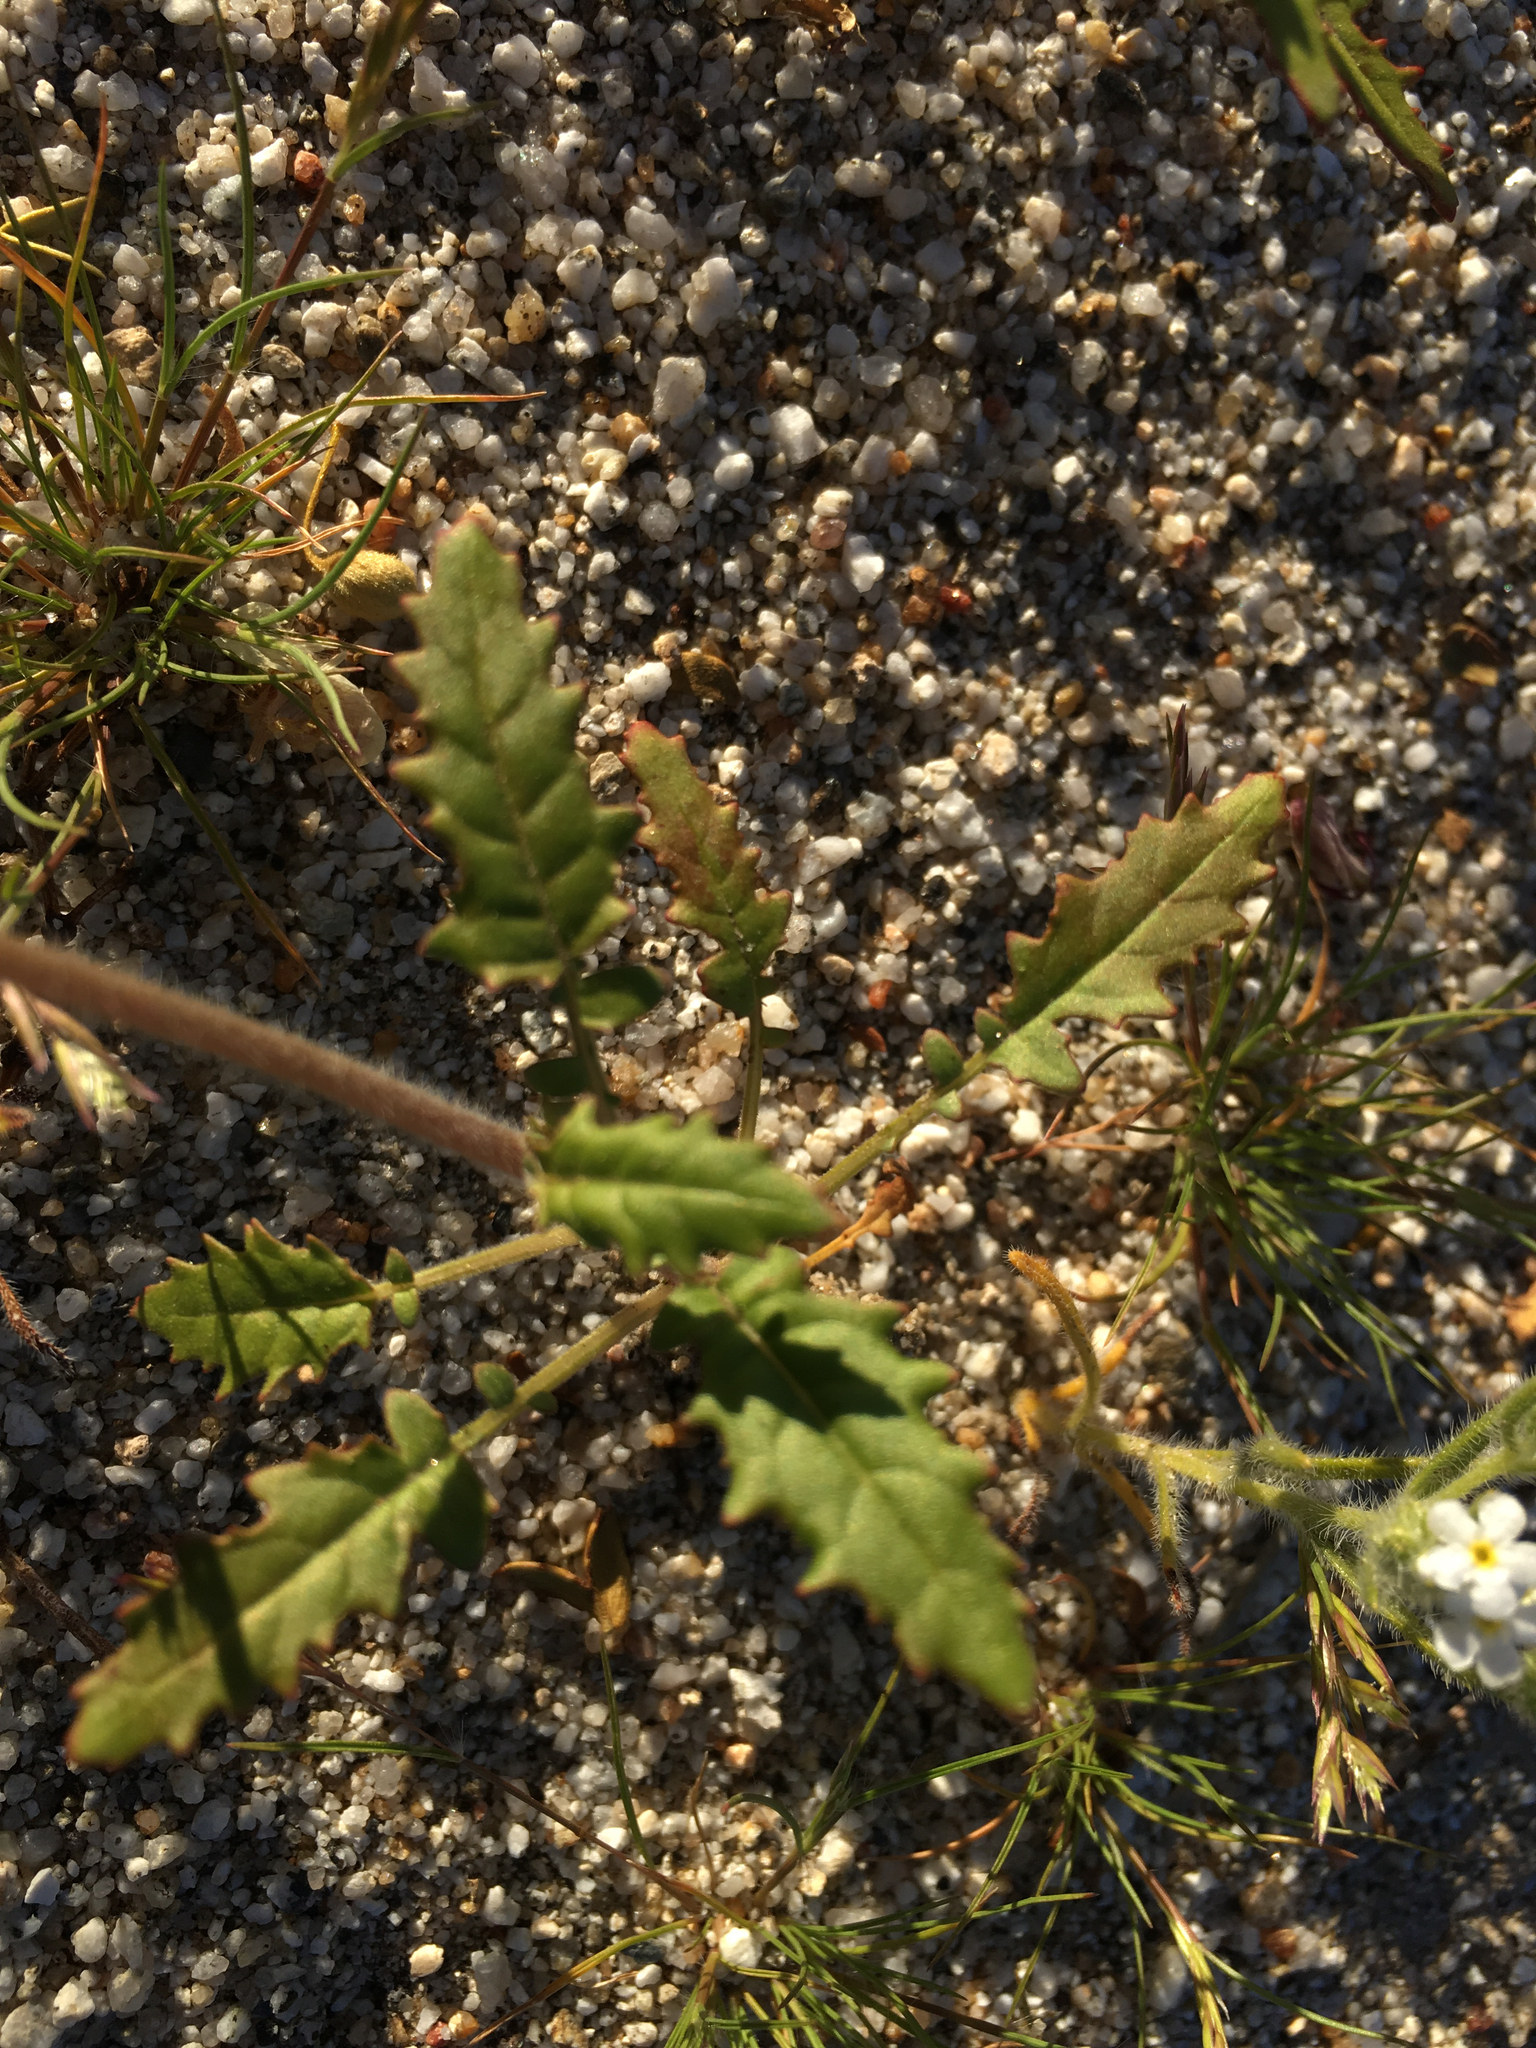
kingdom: Plantae
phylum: Tracheophyta
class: Magnoliopsida
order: Myrtales
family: Onagraceae
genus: Chylismia
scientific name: Chylismia claviformis
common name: Browneyes
